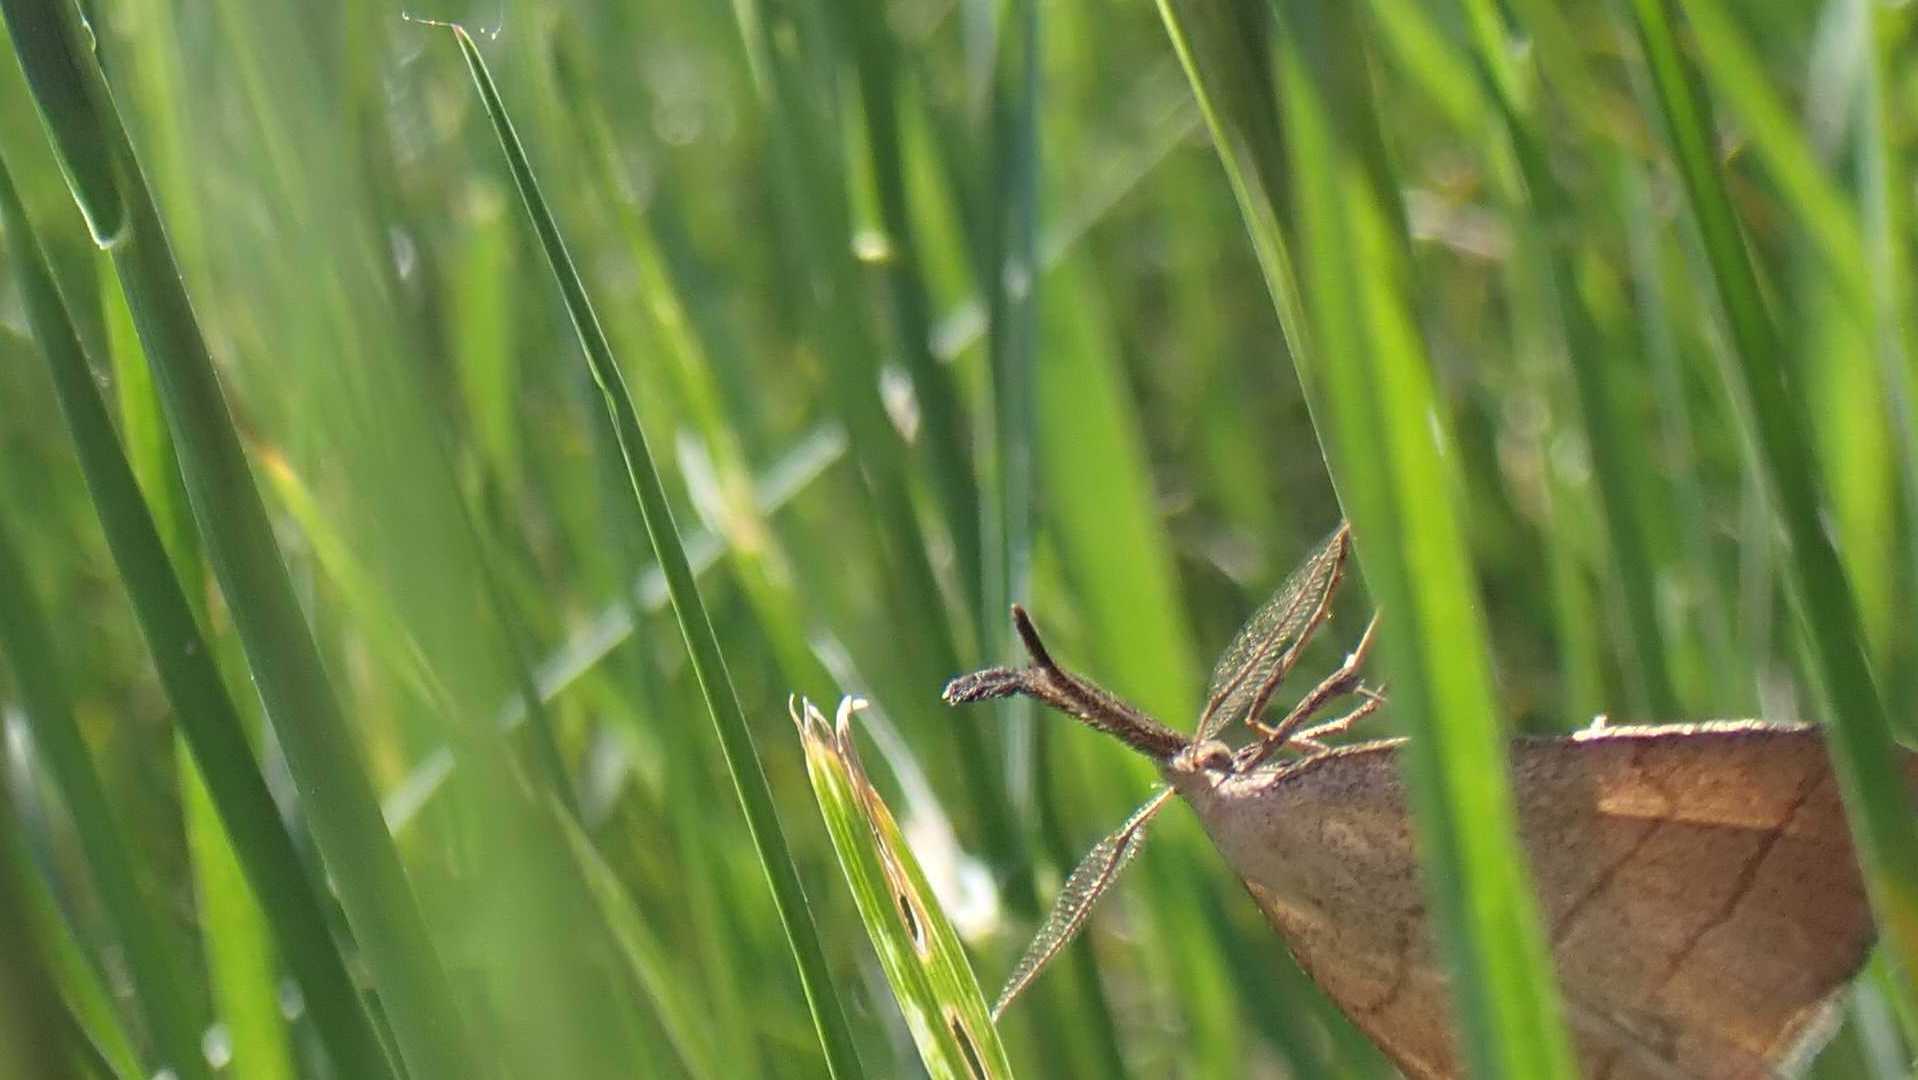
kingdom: Animalia
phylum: Arthropoda
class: Insecta
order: Lepidoptera
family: Erebidae
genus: Polypogon
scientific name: Polypogon tentacularia
